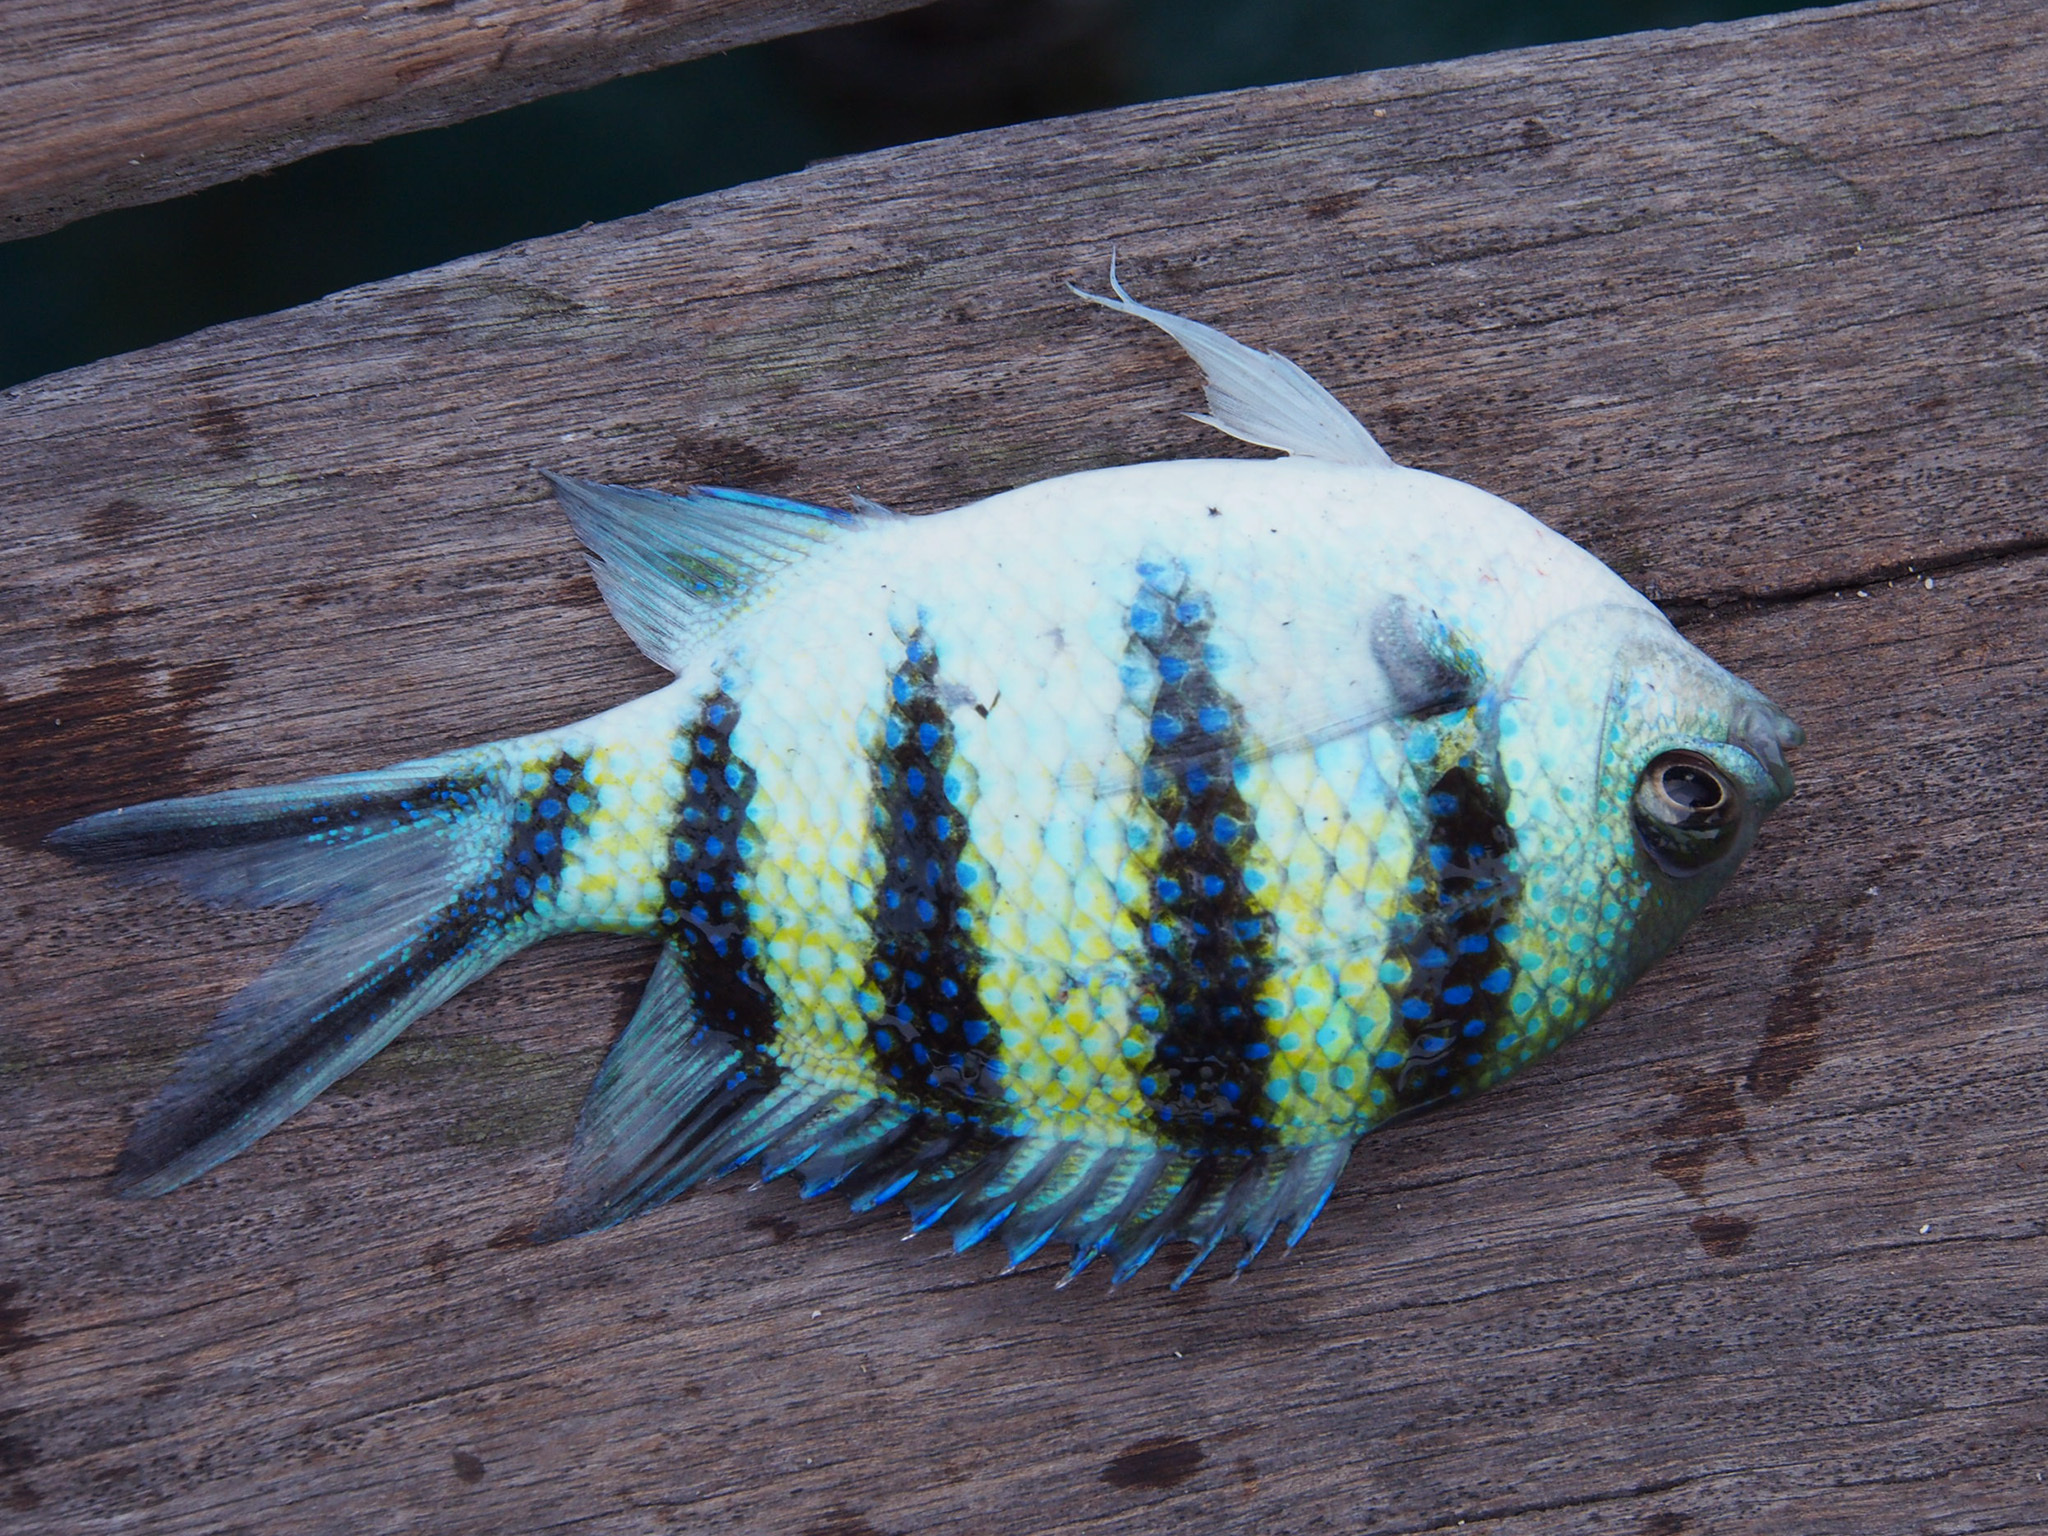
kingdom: Animalia
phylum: Chordata
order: Perciformes
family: Pomacentridae
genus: Abudefduf
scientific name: Abudefduf sexfasciatus
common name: Scissortail sergeant
